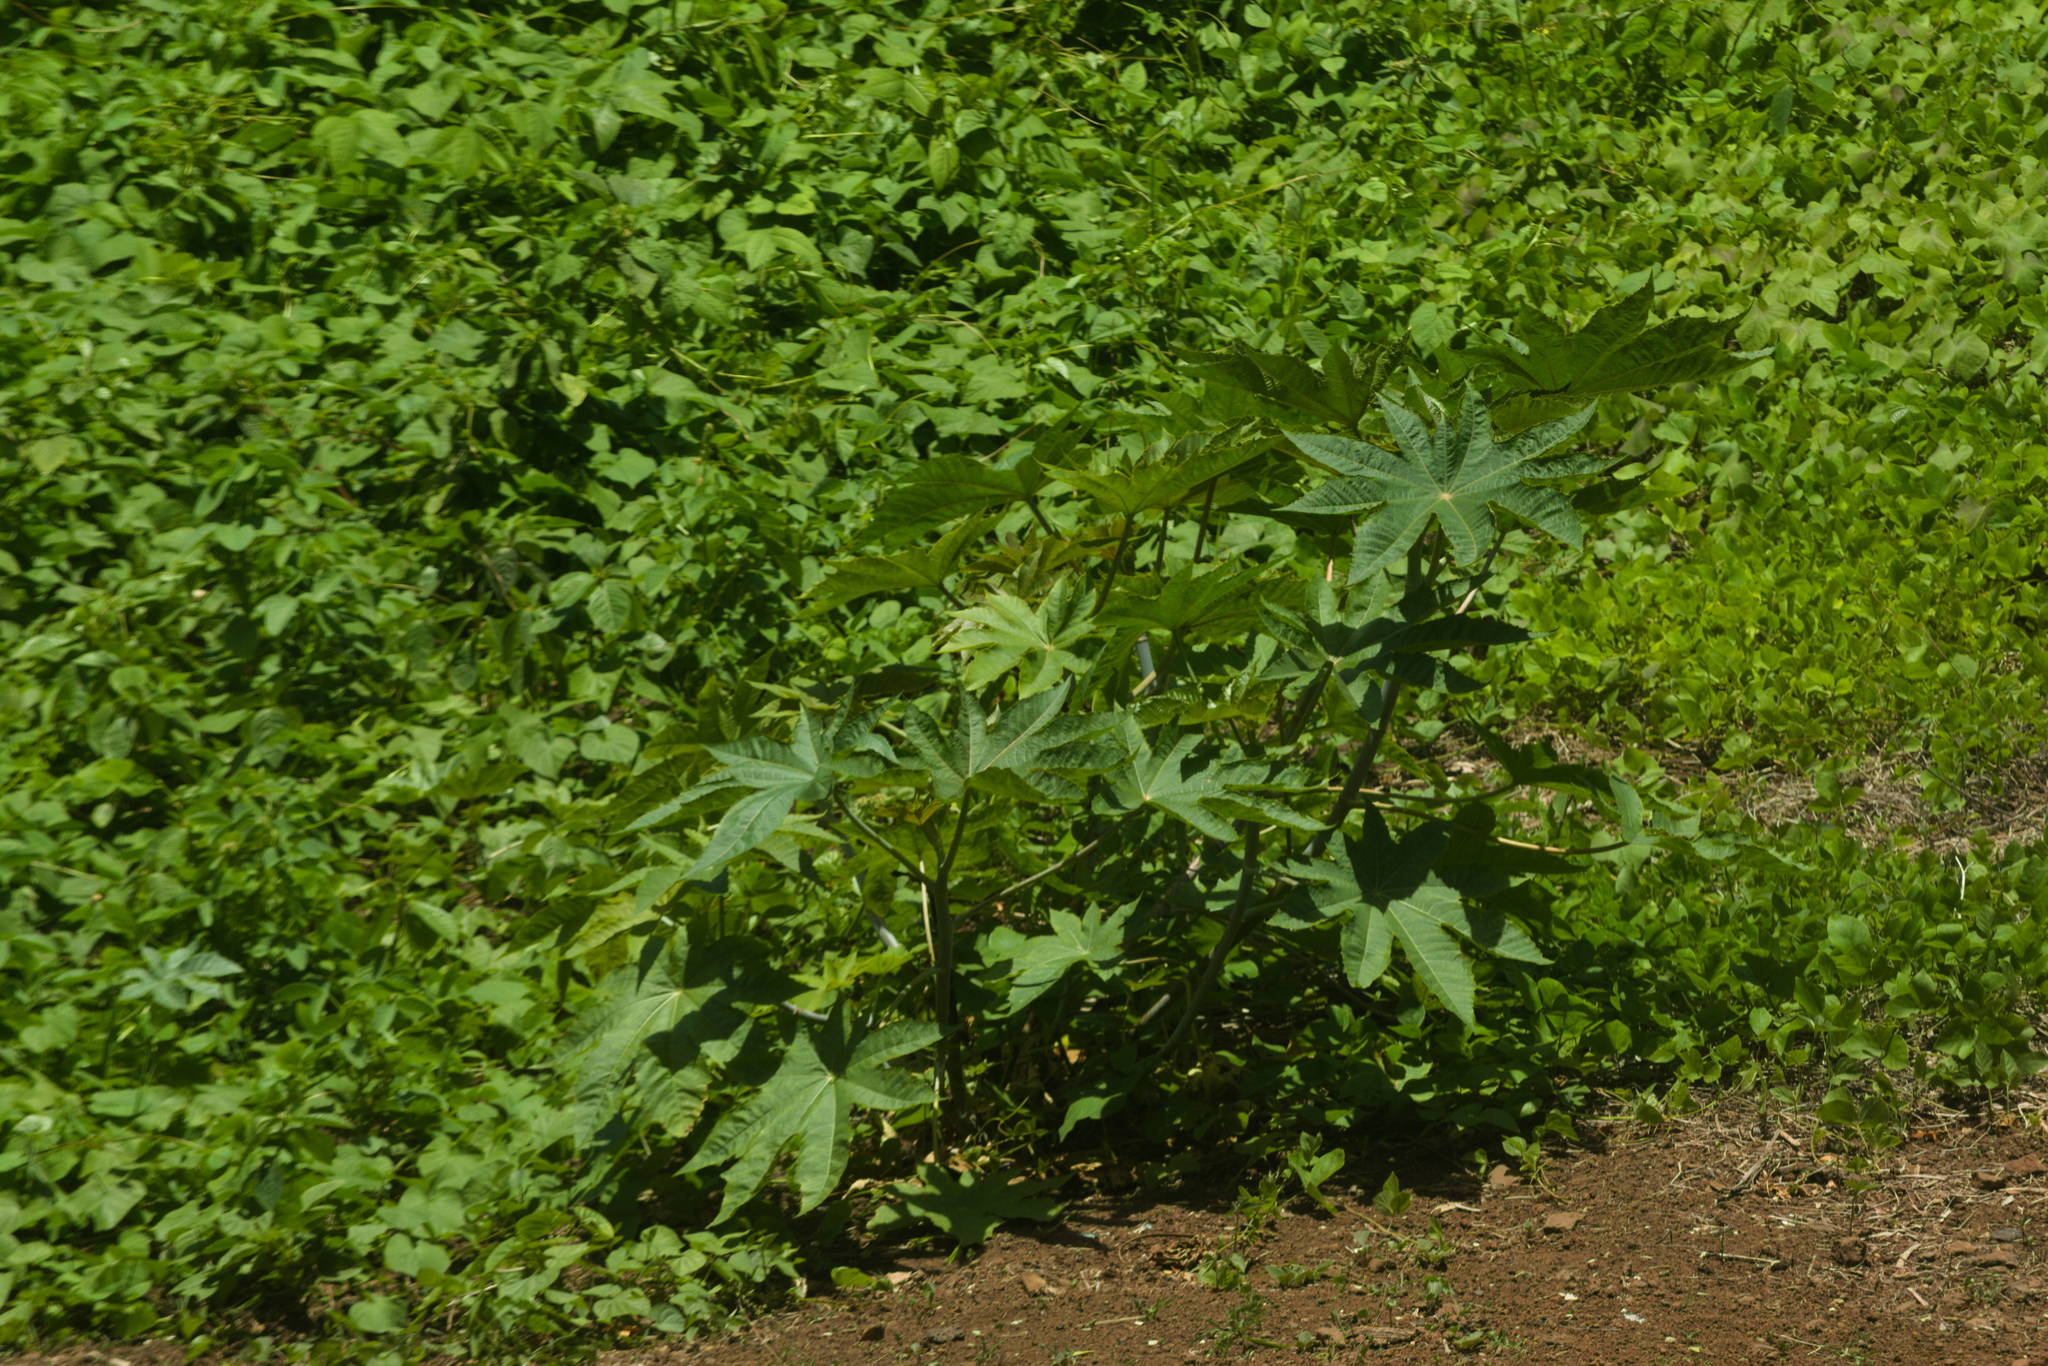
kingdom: Plantae
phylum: Tracheophyta
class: Magnoliopsida
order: Malpighiales
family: Euphorbiaceae
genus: Ricinus
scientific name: Ricinus communis
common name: Castor-oil-plant
